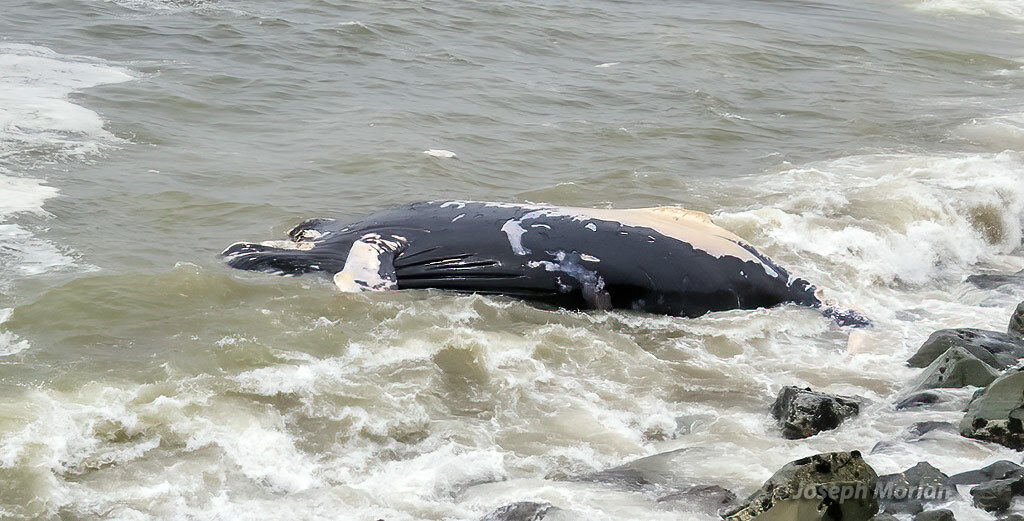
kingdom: Animalia
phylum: Chordata
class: Mammalia
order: Cetacea
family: Balaenopteridae
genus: Megaptera
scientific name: Megaptera novaeangliae
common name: Humpback whale
